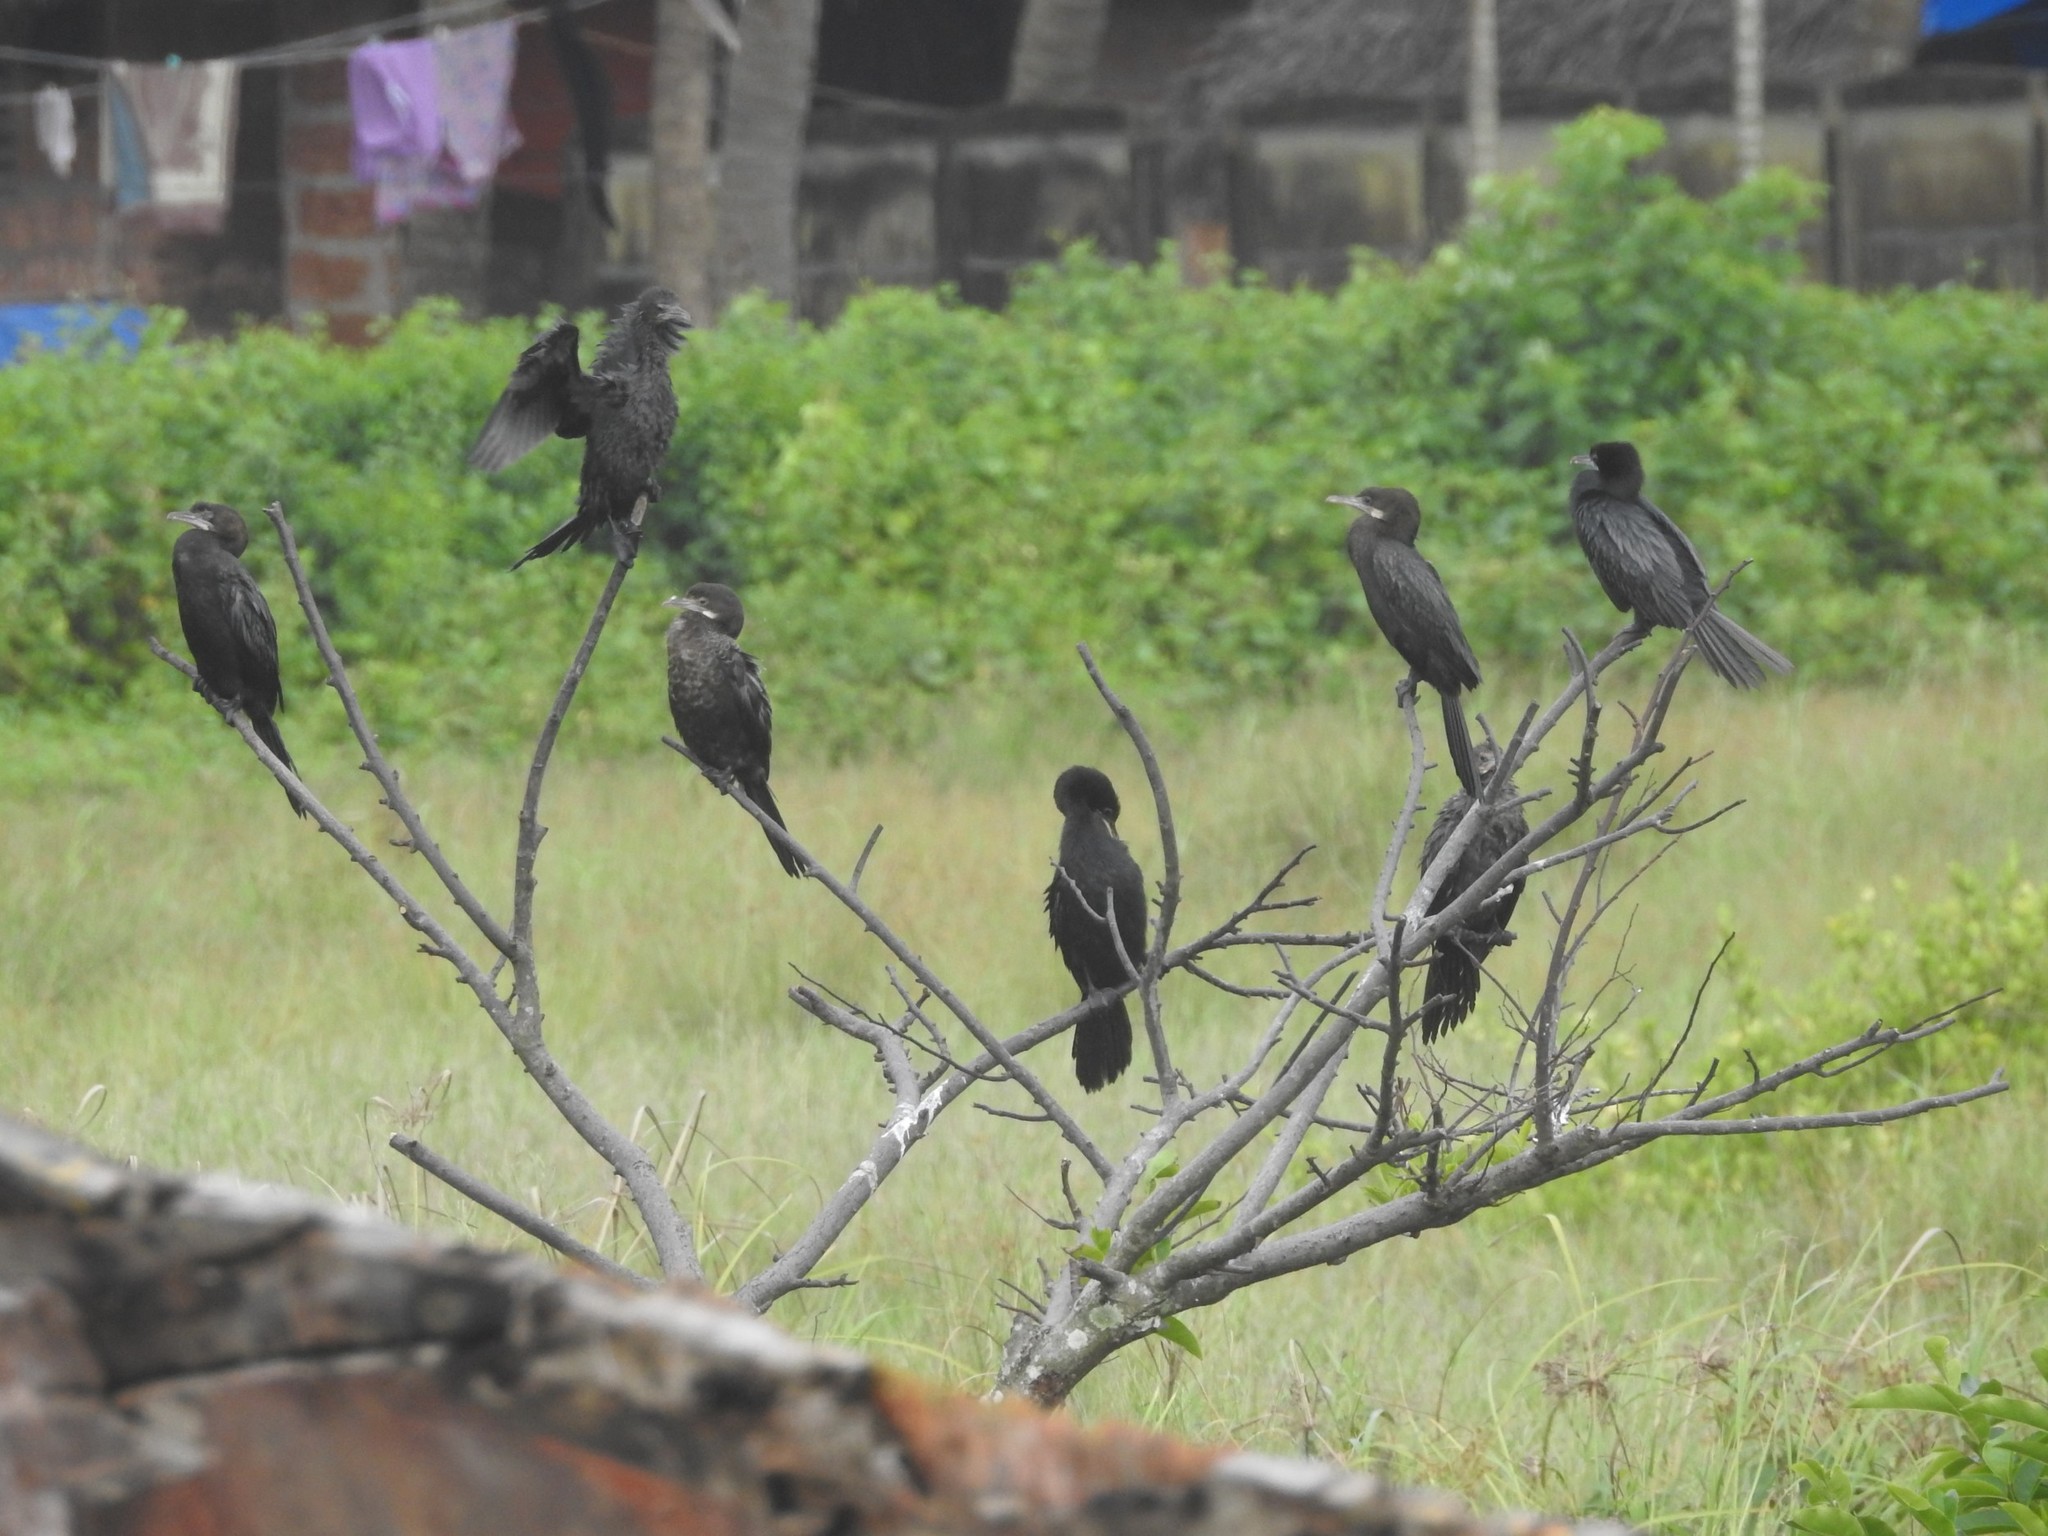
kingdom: Animalia
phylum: Chordata
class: Aves
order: Suliformes
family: Phalacrocoracidae
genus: Microcarbo
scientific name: Microcarbo niger
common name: Little cormorant
